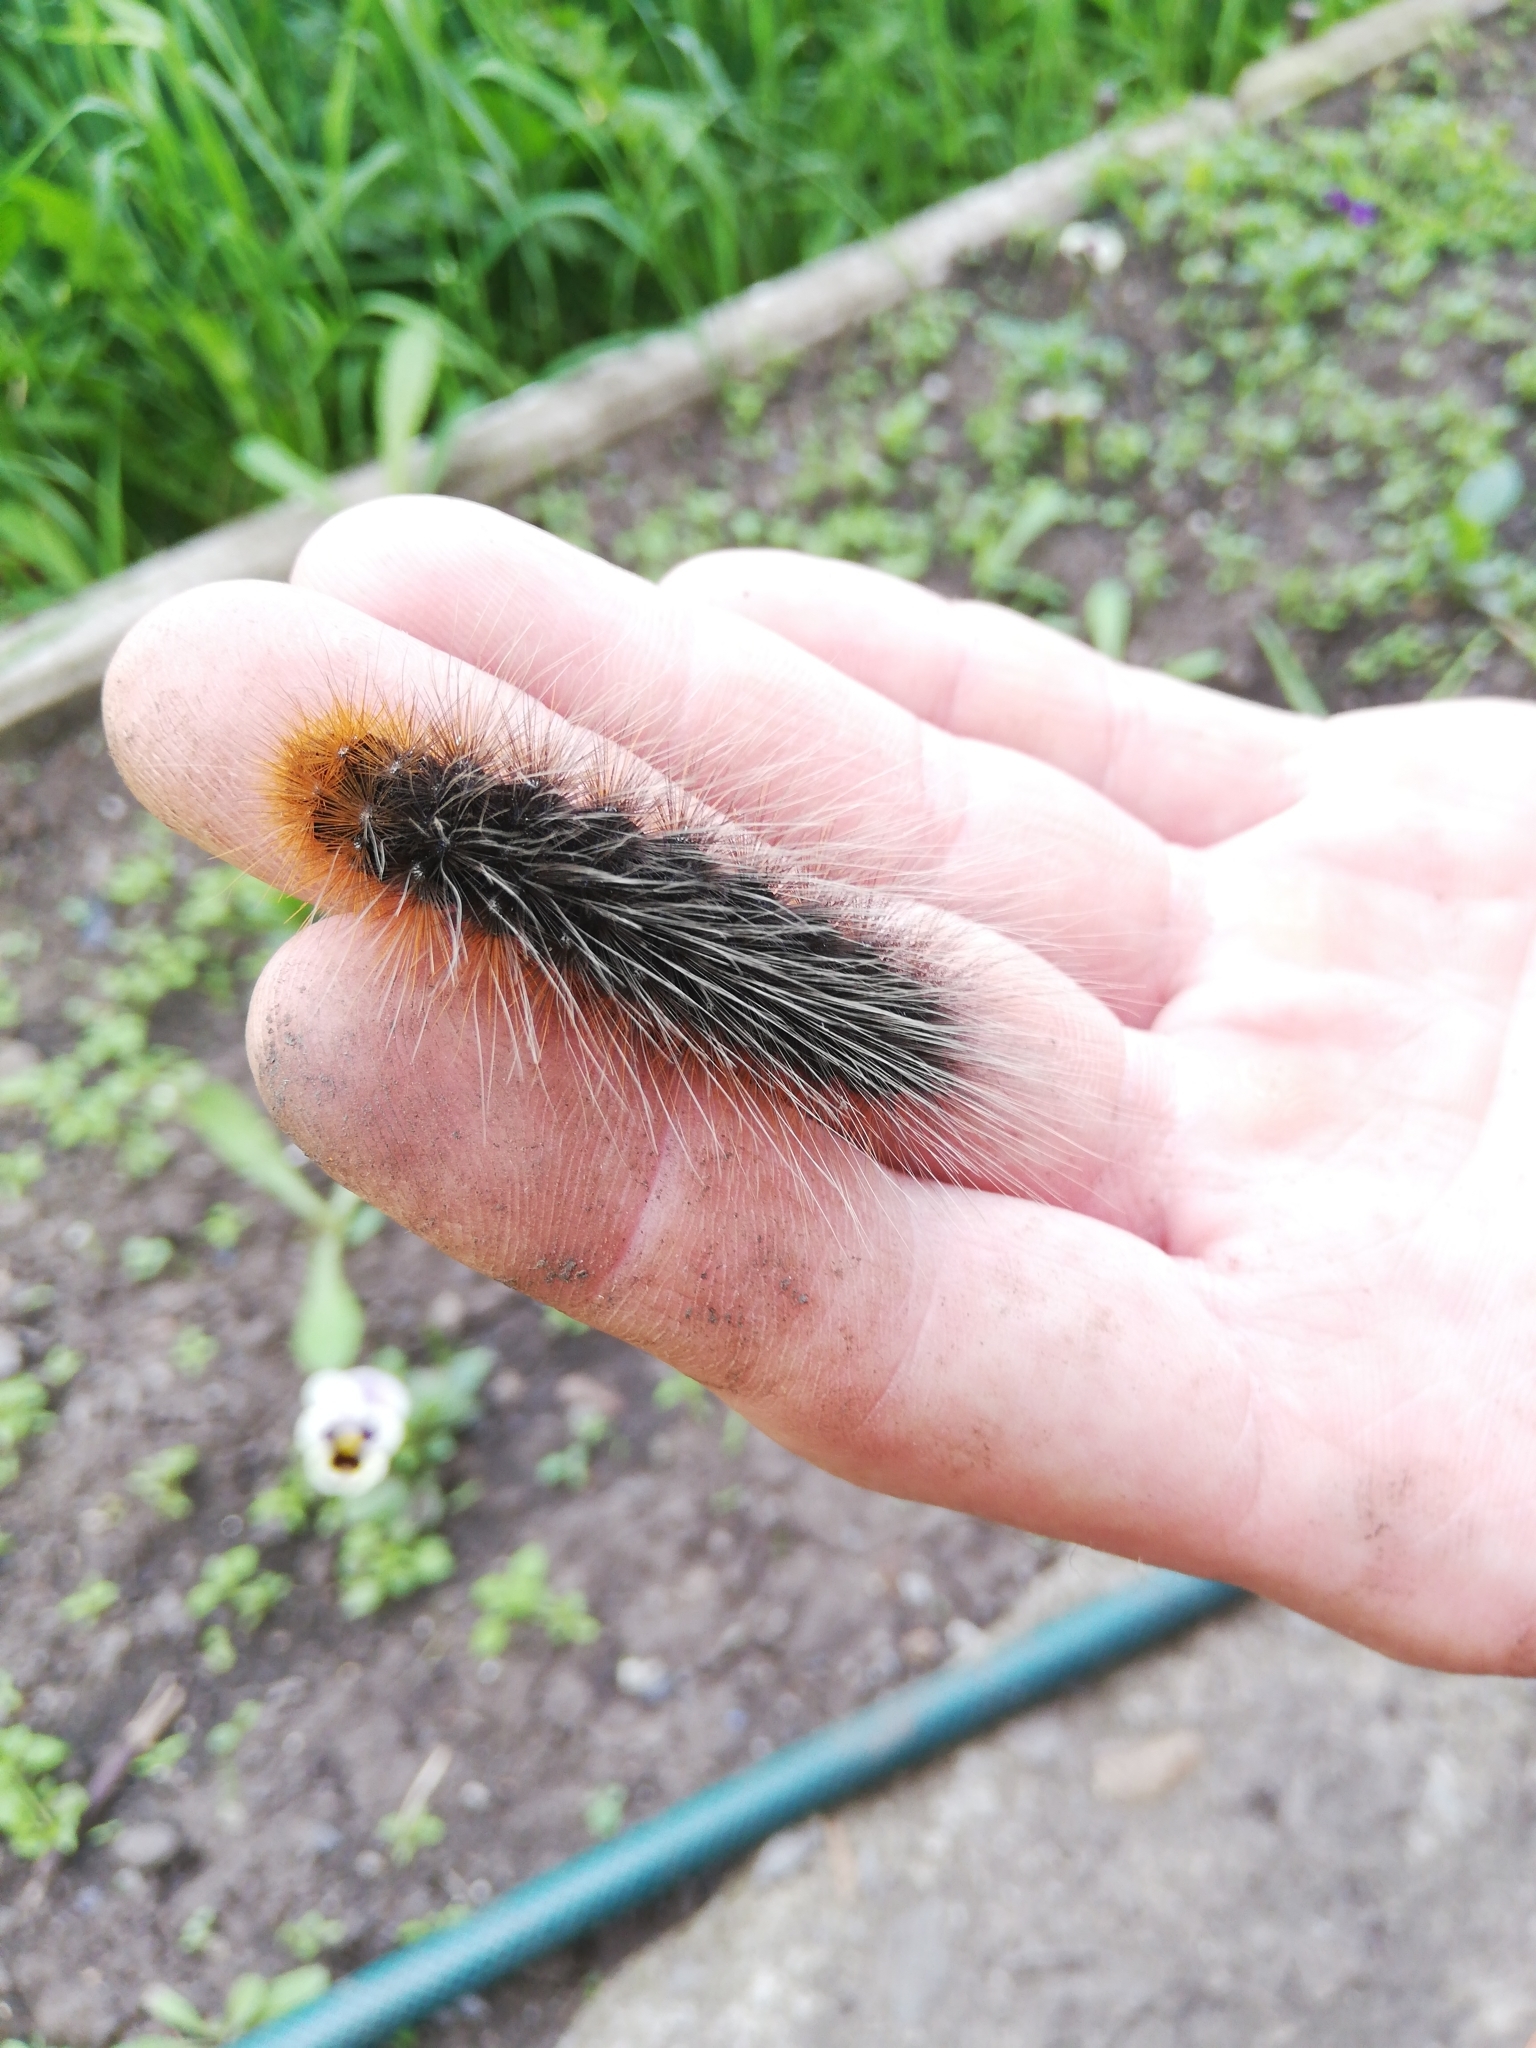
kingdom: Animalia
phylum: Arthropoda
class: Insecta
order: Lepidoptera
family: Erebidae
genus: Arctia
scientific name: Arctia caja
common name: Garden tiger
